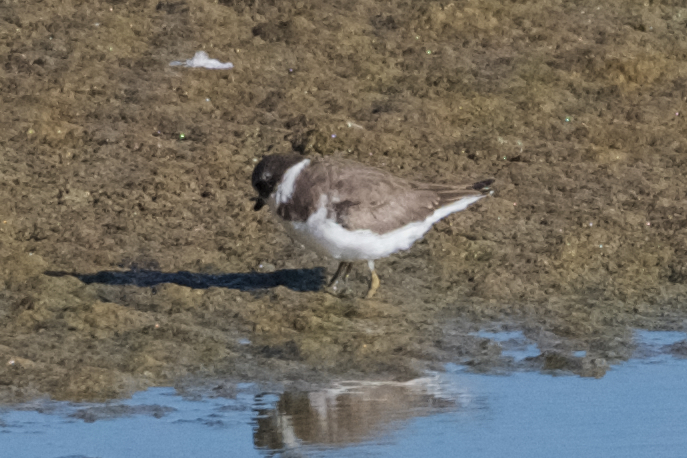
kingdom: Animalia
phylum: Chordata
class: Aves
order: Charadriiformes
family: Charadriidae
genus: Charadrius
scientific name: Charadrius semipalmatus
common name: Semipalmated plover
